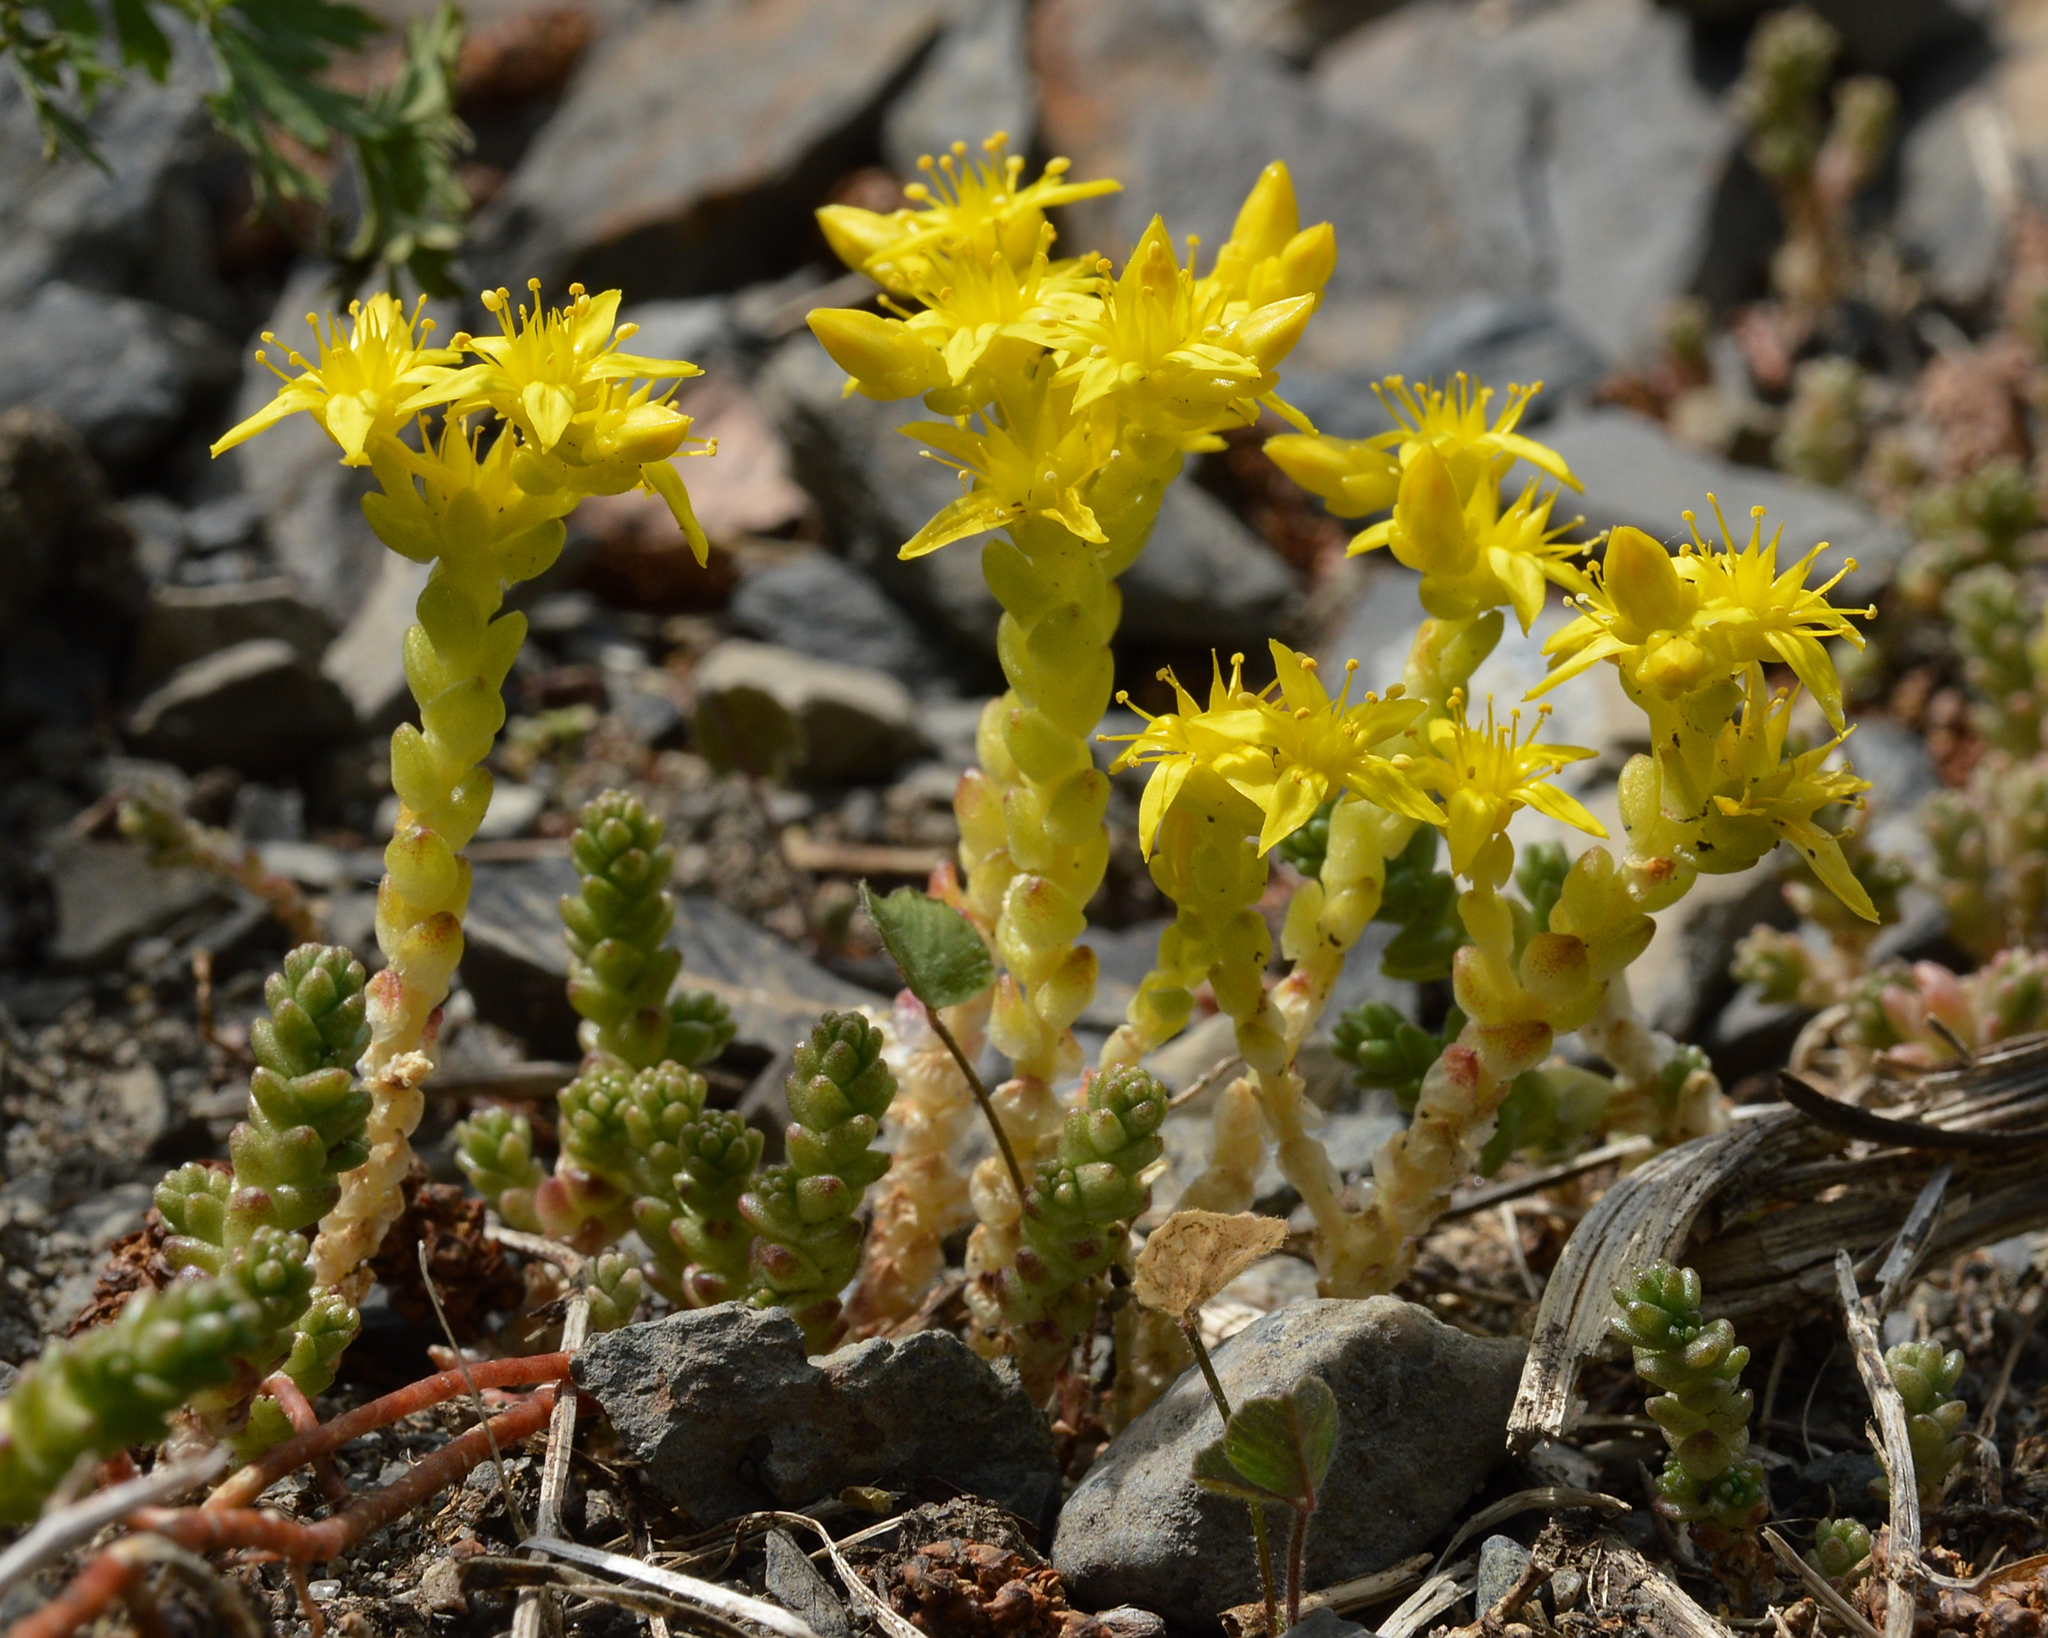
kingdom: Plantae
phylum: Tracheophyta
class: Magnoliopsida
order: Saxifragales
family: Crassulaceae
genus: Sedum
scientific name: Sedum acre
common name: Biting stonecrop
